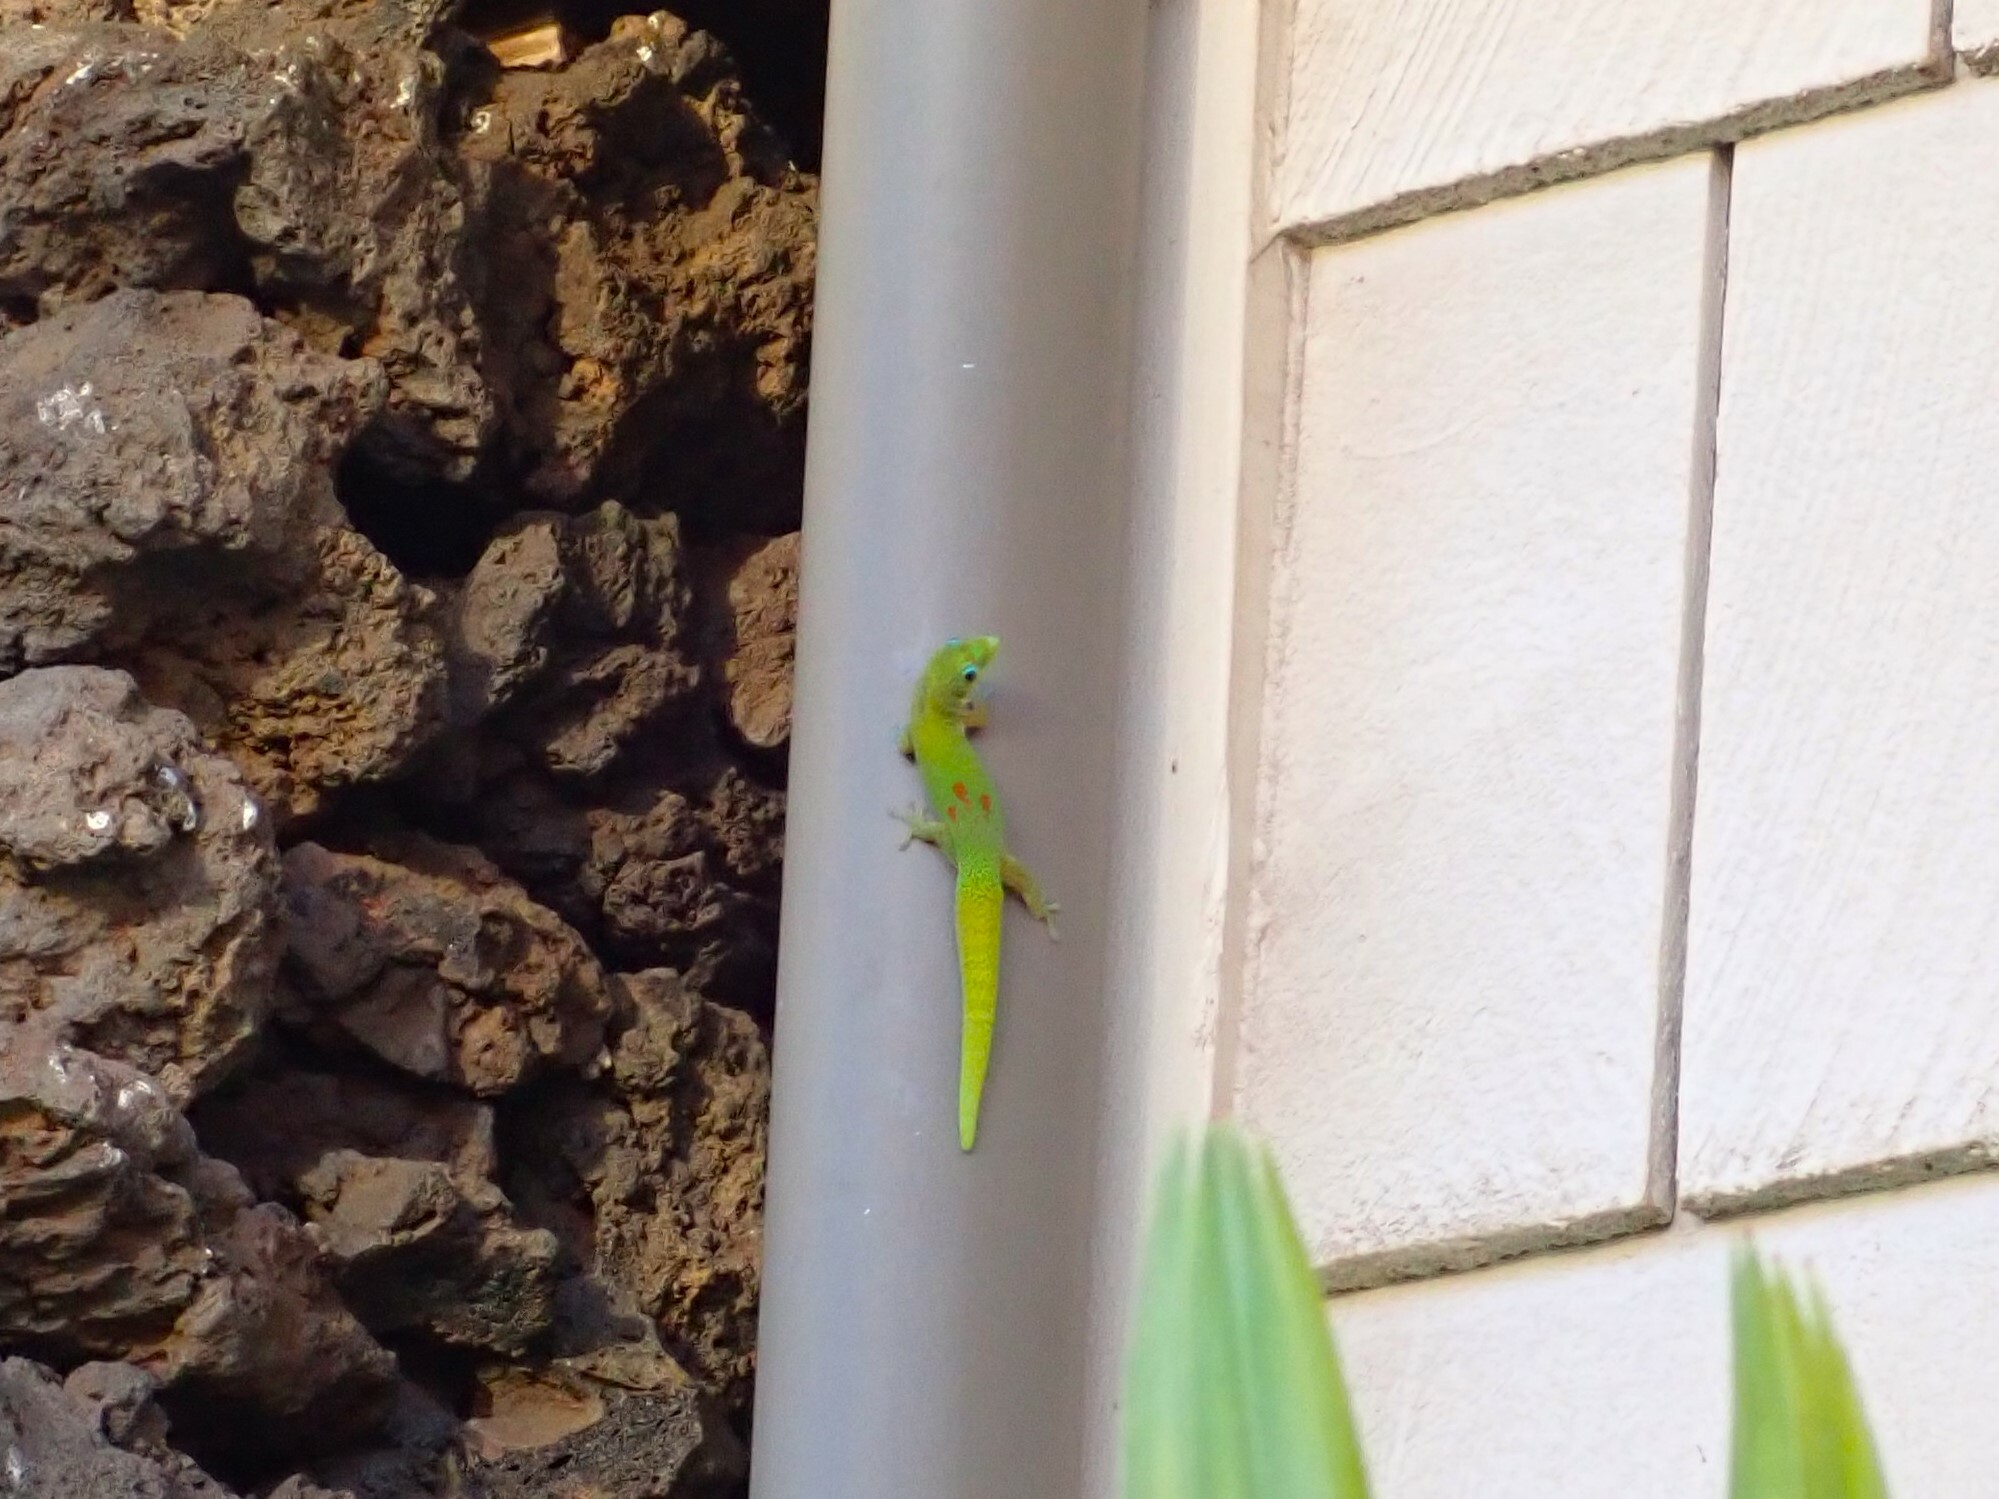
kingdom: Animalia
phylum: Chordata
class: Squamata
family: Gekkonidae
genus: Phelsuma
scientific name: Phelsuma laticauda
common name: Gold dust day gecko
